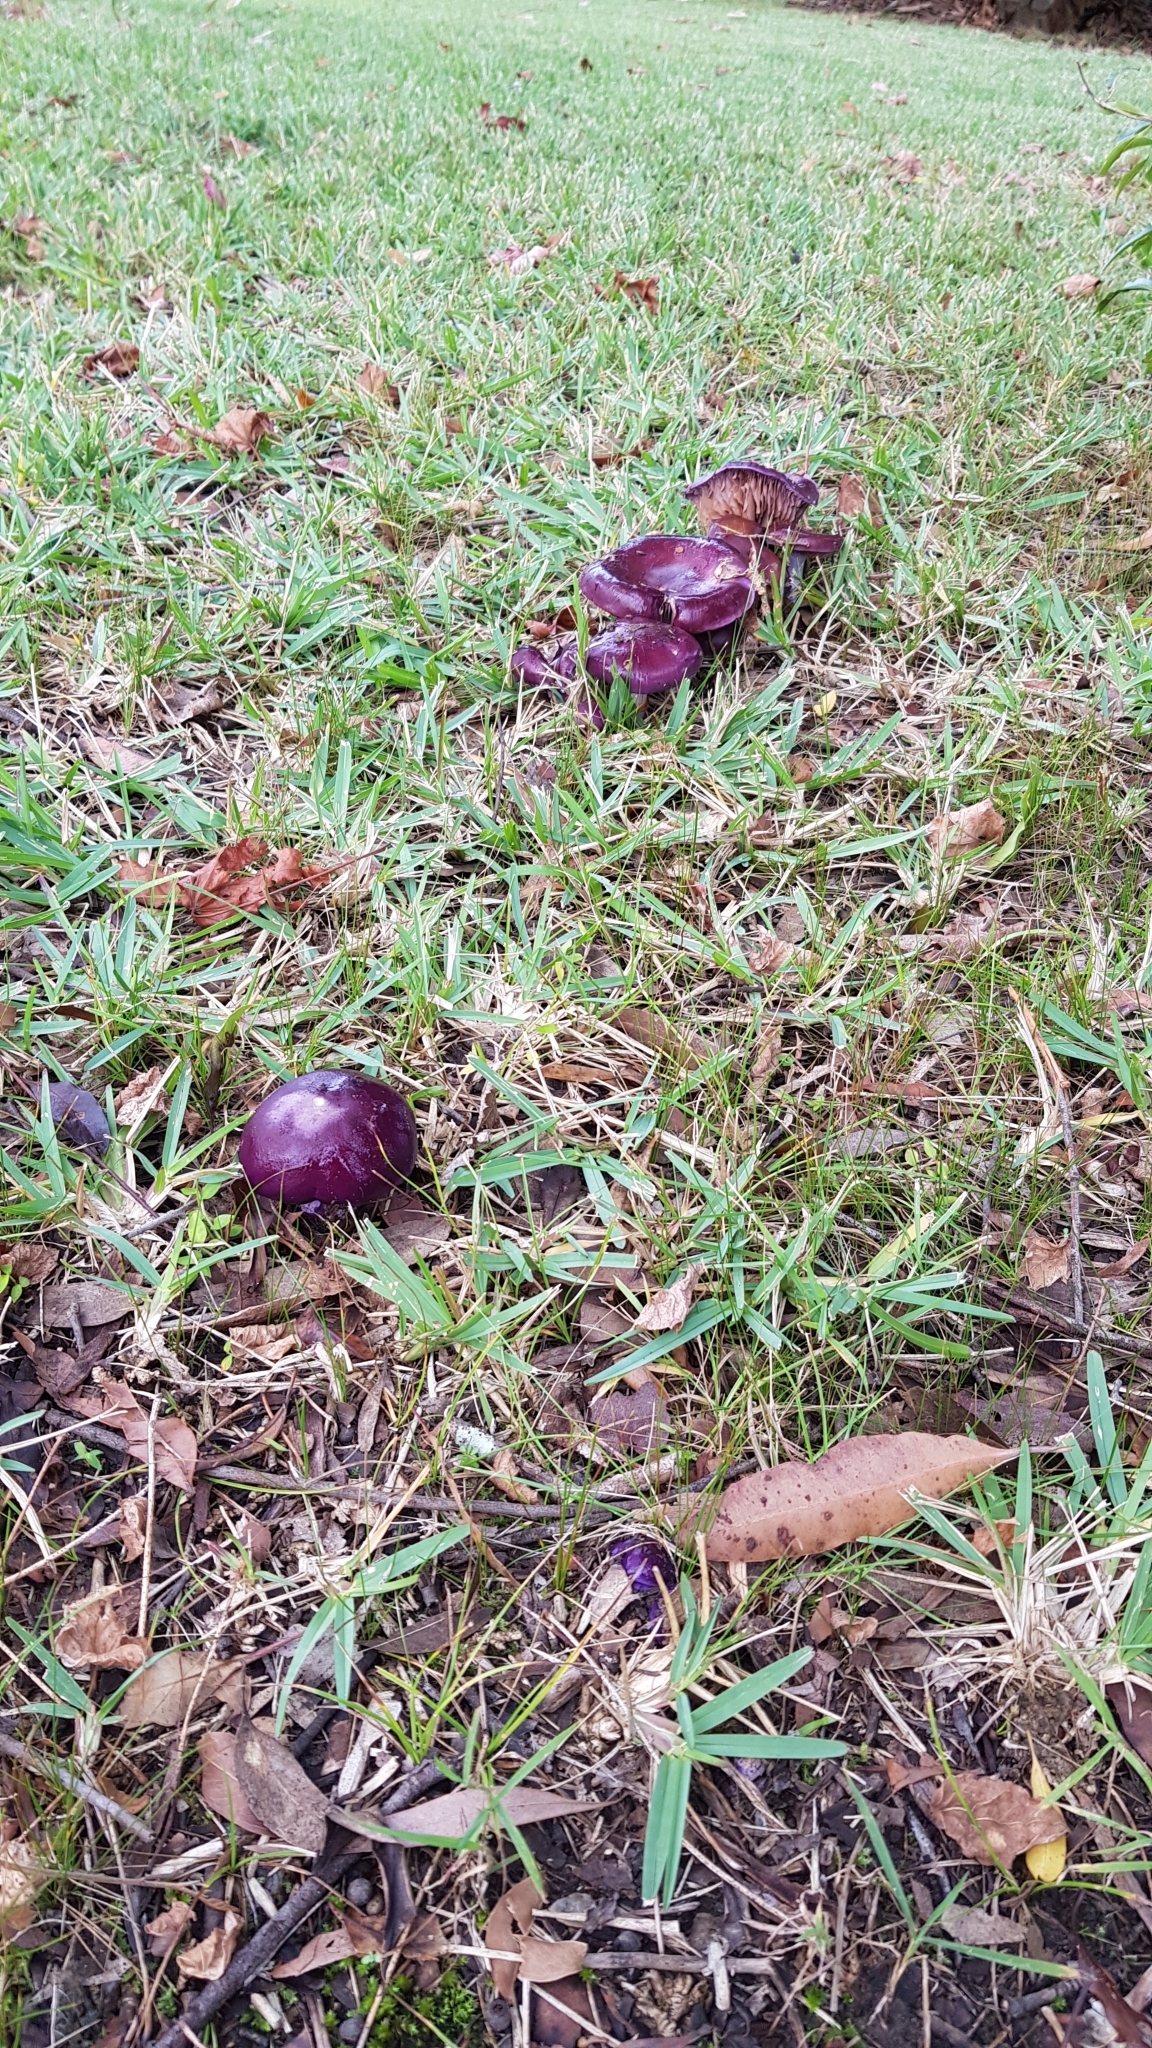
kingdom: Fungi
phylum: Basidiomycota
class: Agaricomycetes
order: Agaricales
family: Cortinariaceae
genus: Cortinarius
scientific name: Cortinarius archeri
